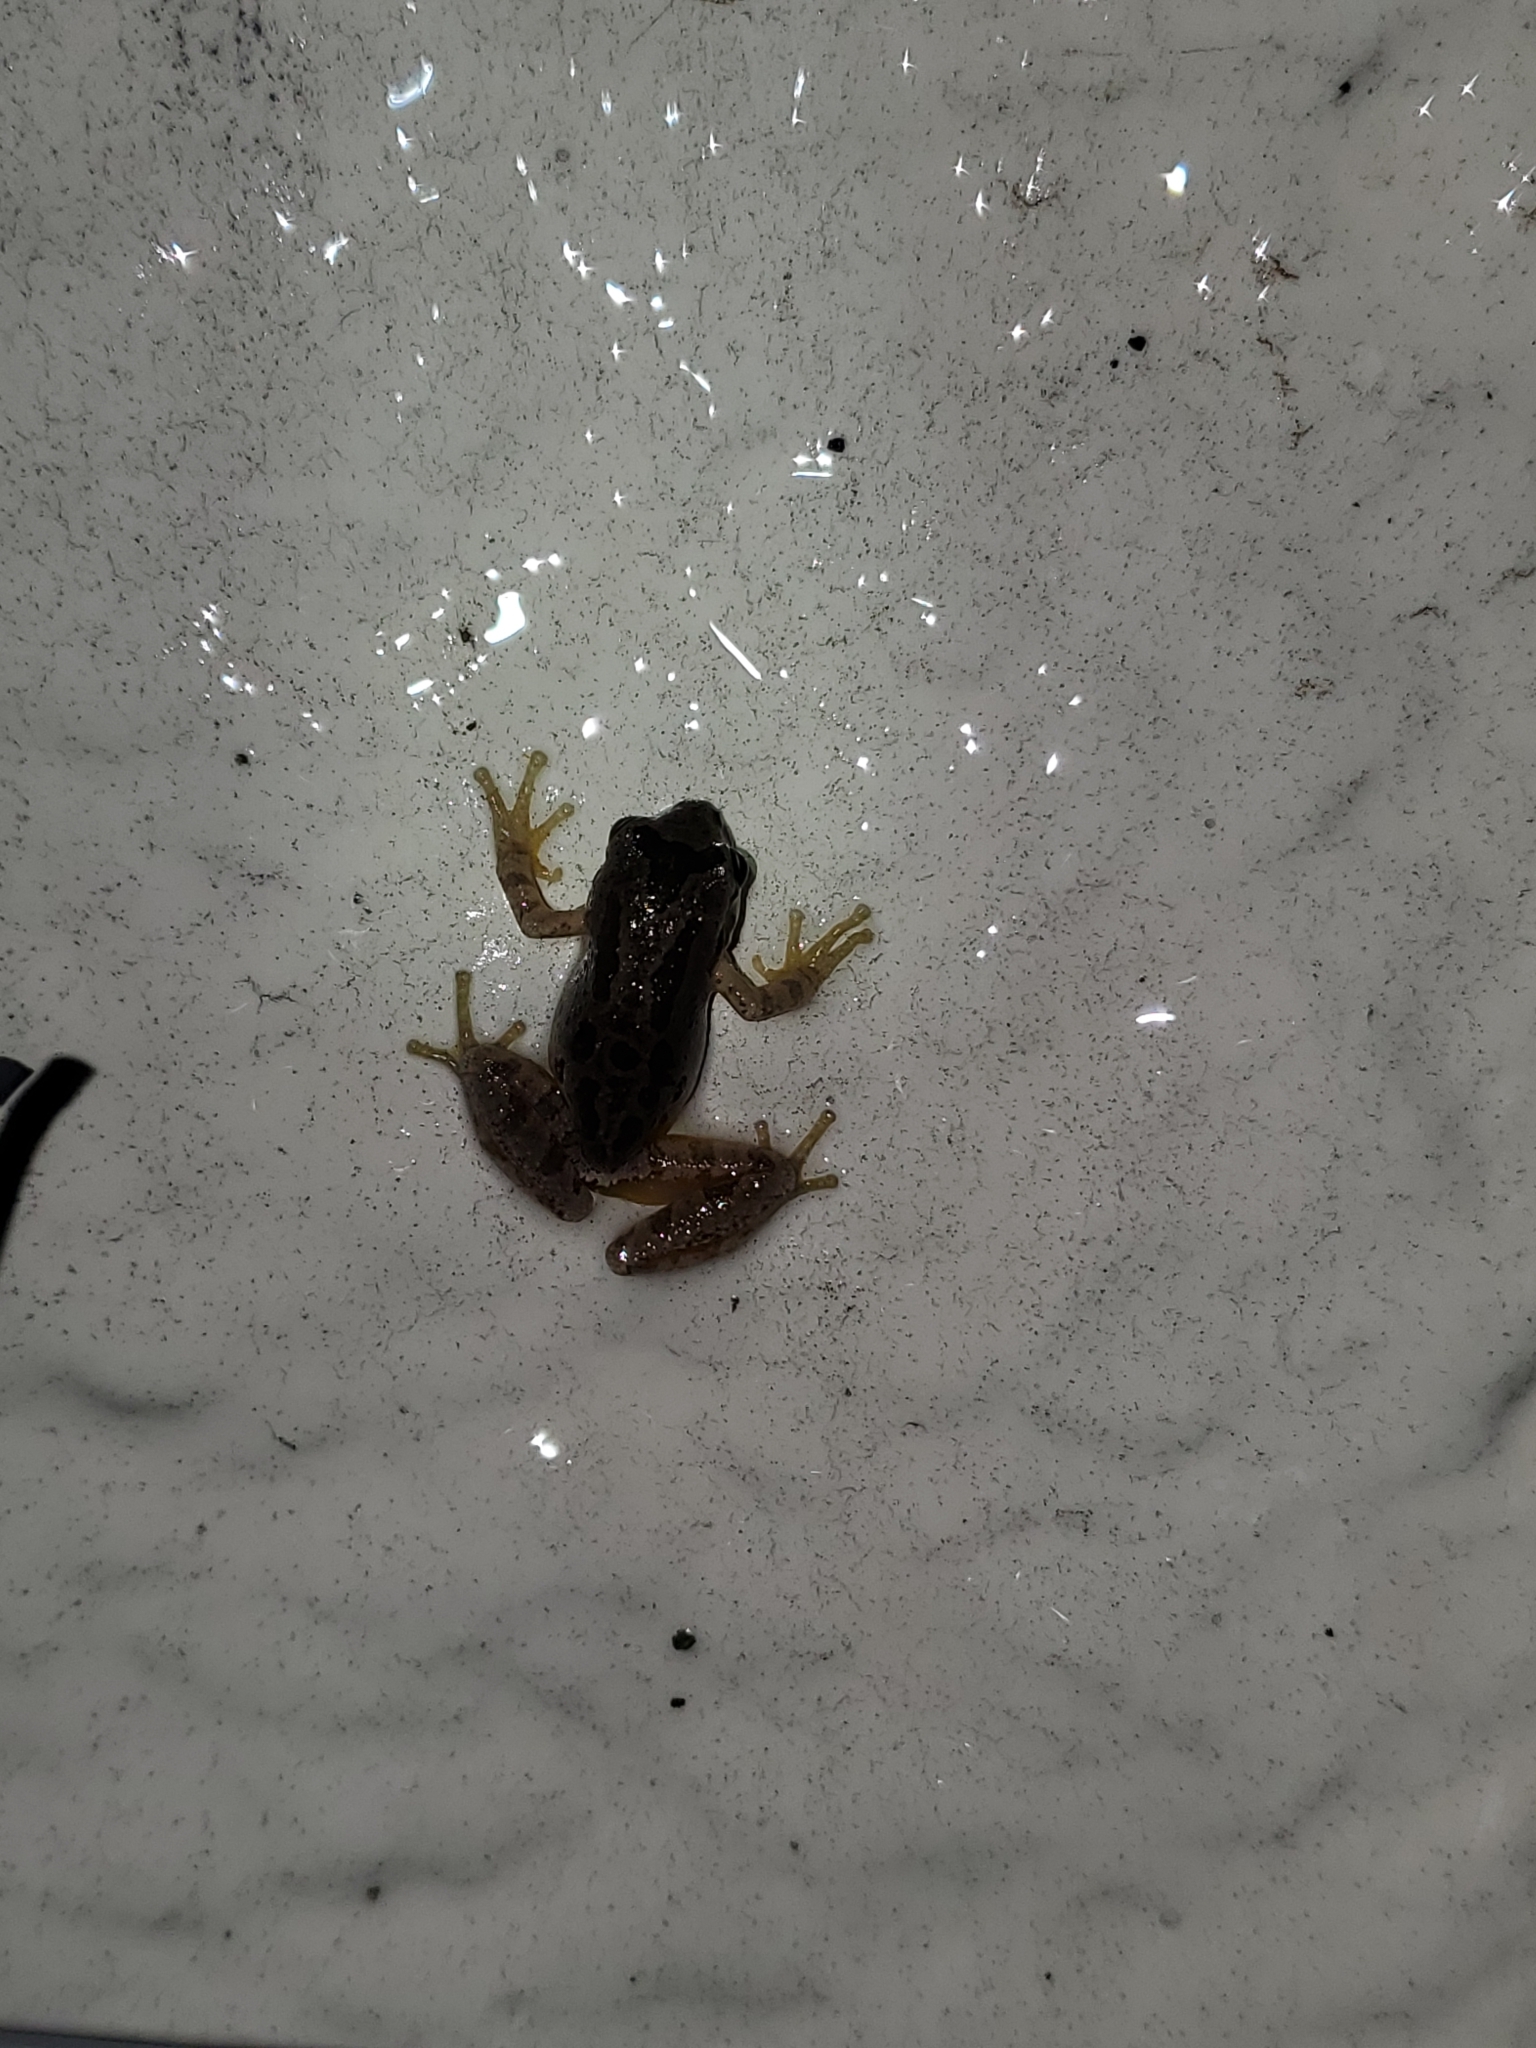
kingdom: Animalia
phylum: Chordata
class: Amphibia
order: Anura
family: Hylidae
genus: Pseudacris
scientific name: Pseudacris regilla
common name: Pacific chorus frog
